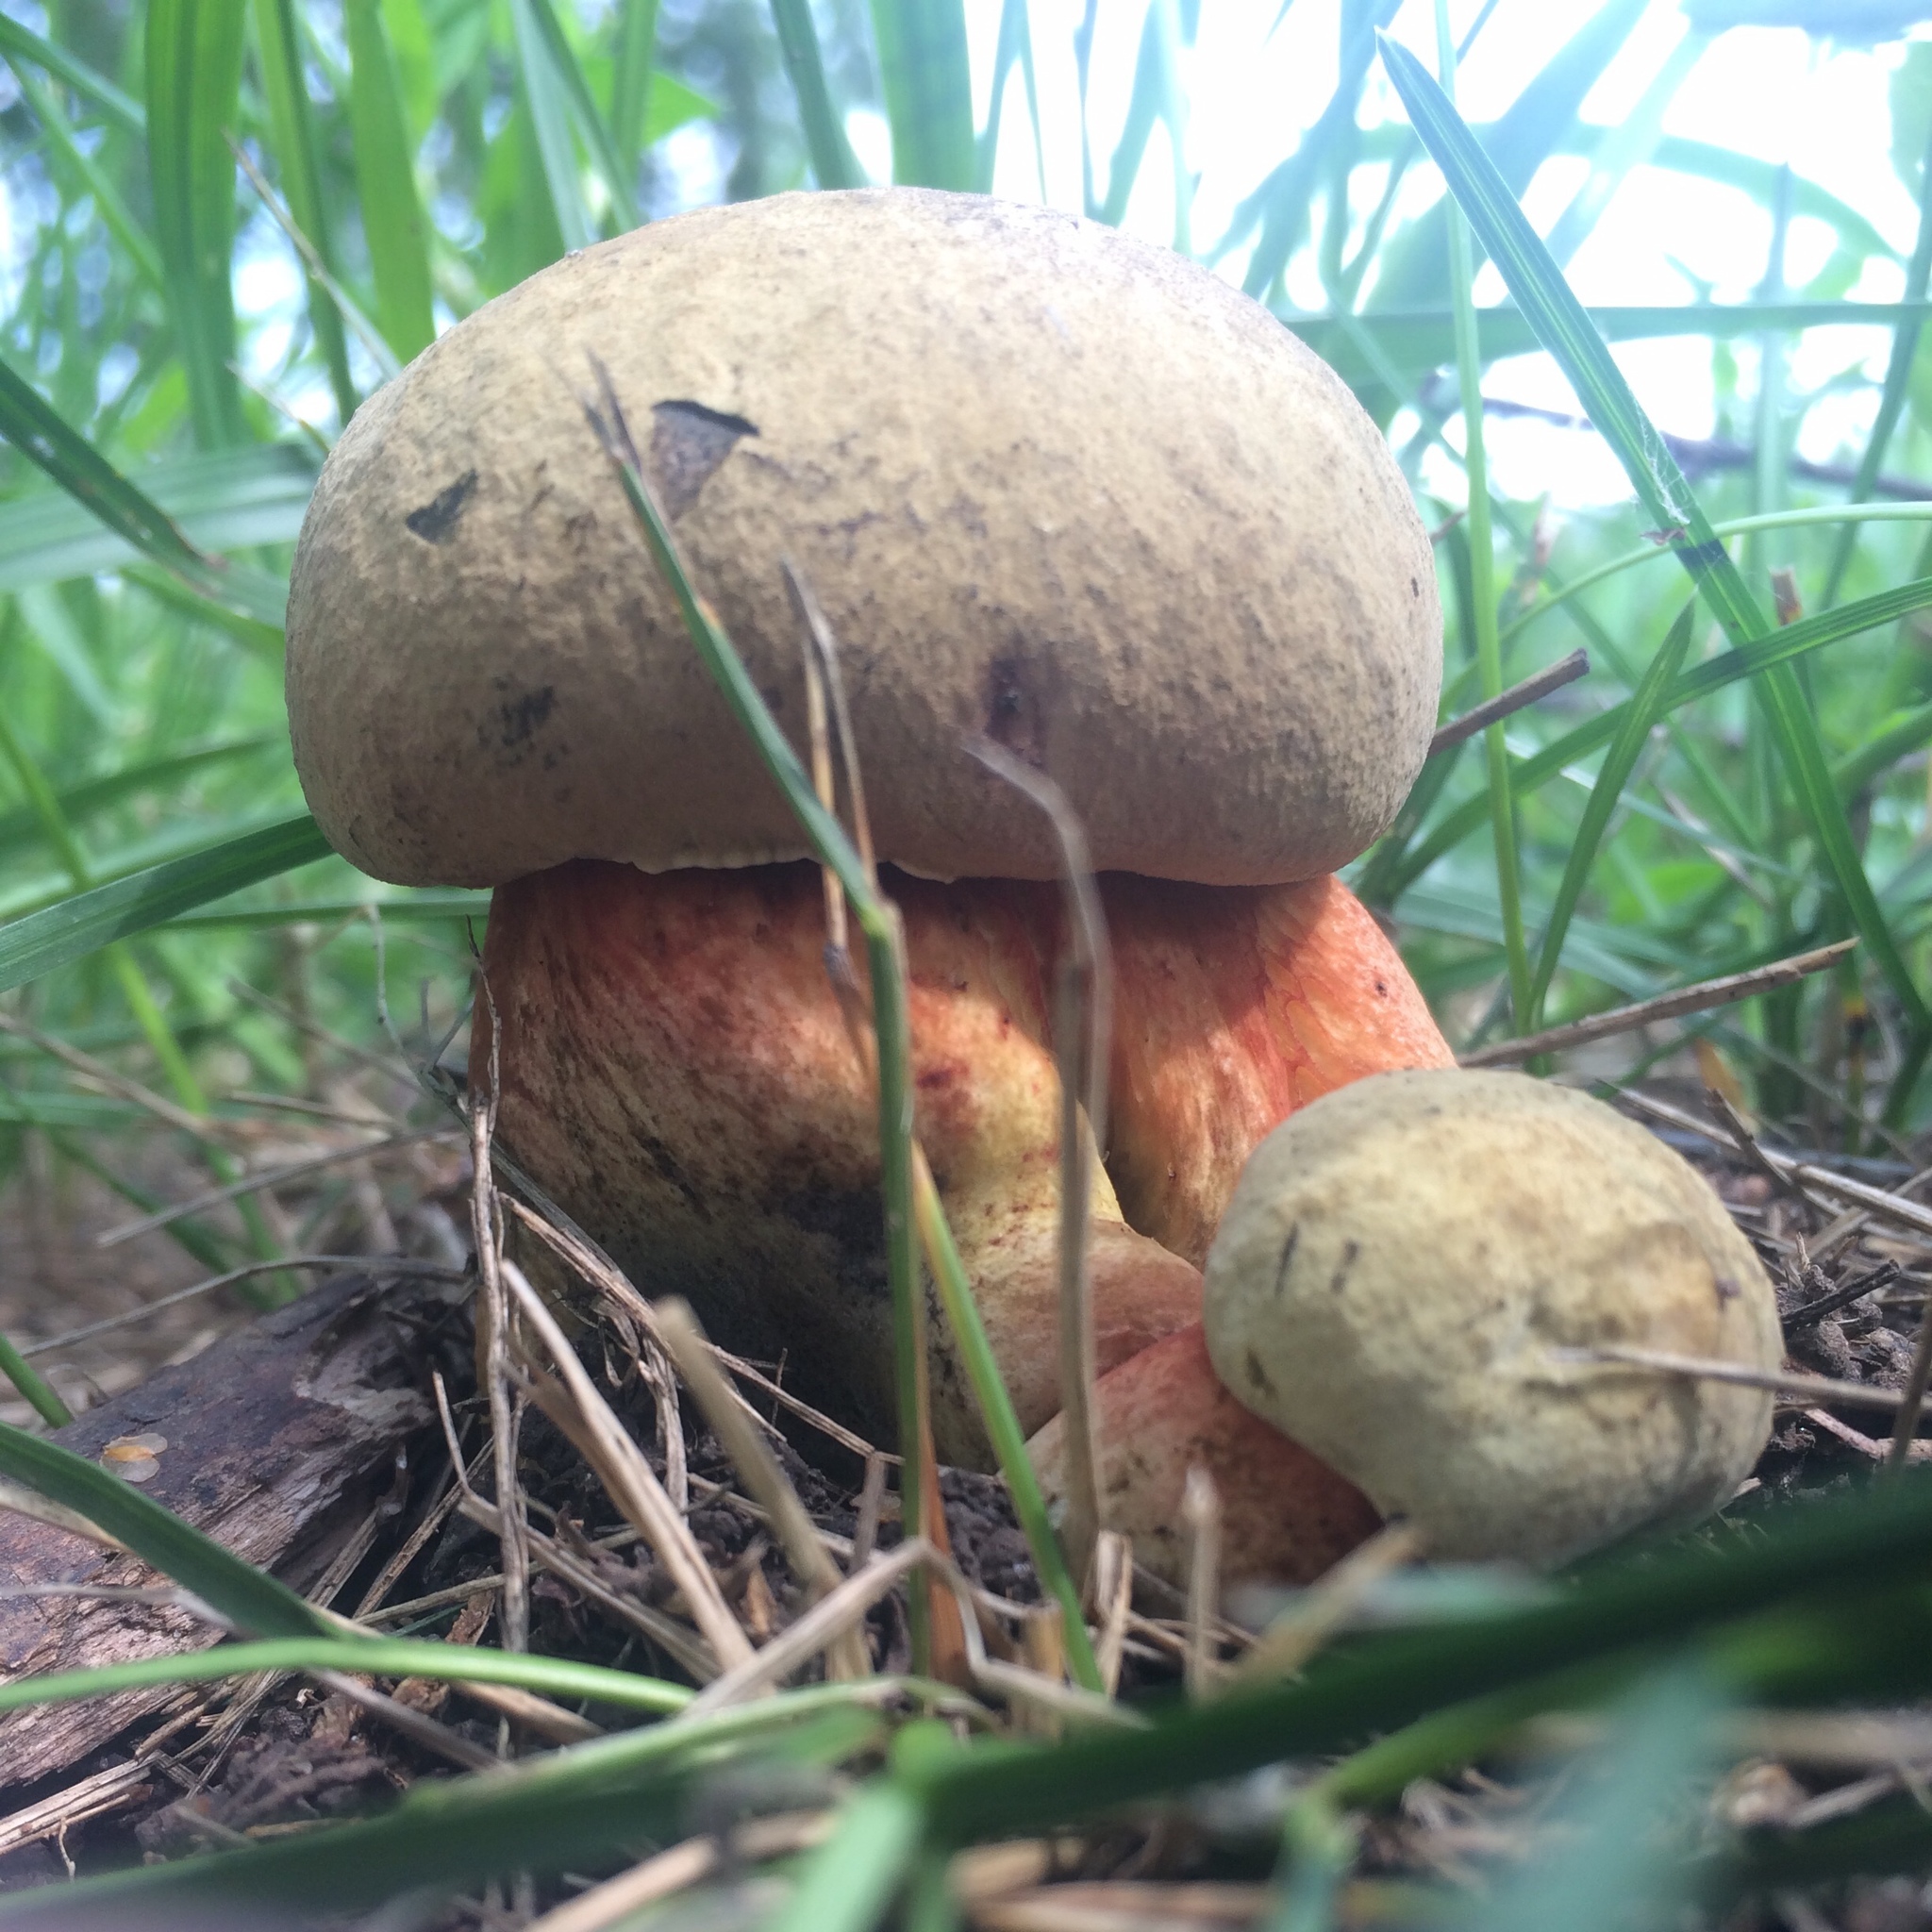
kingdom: Fungi
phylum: Basidiomycota
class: Agaricomycetes
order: Boletales
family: Boletaceae
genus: Neoboletus
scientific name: Neoboletus erythropus
